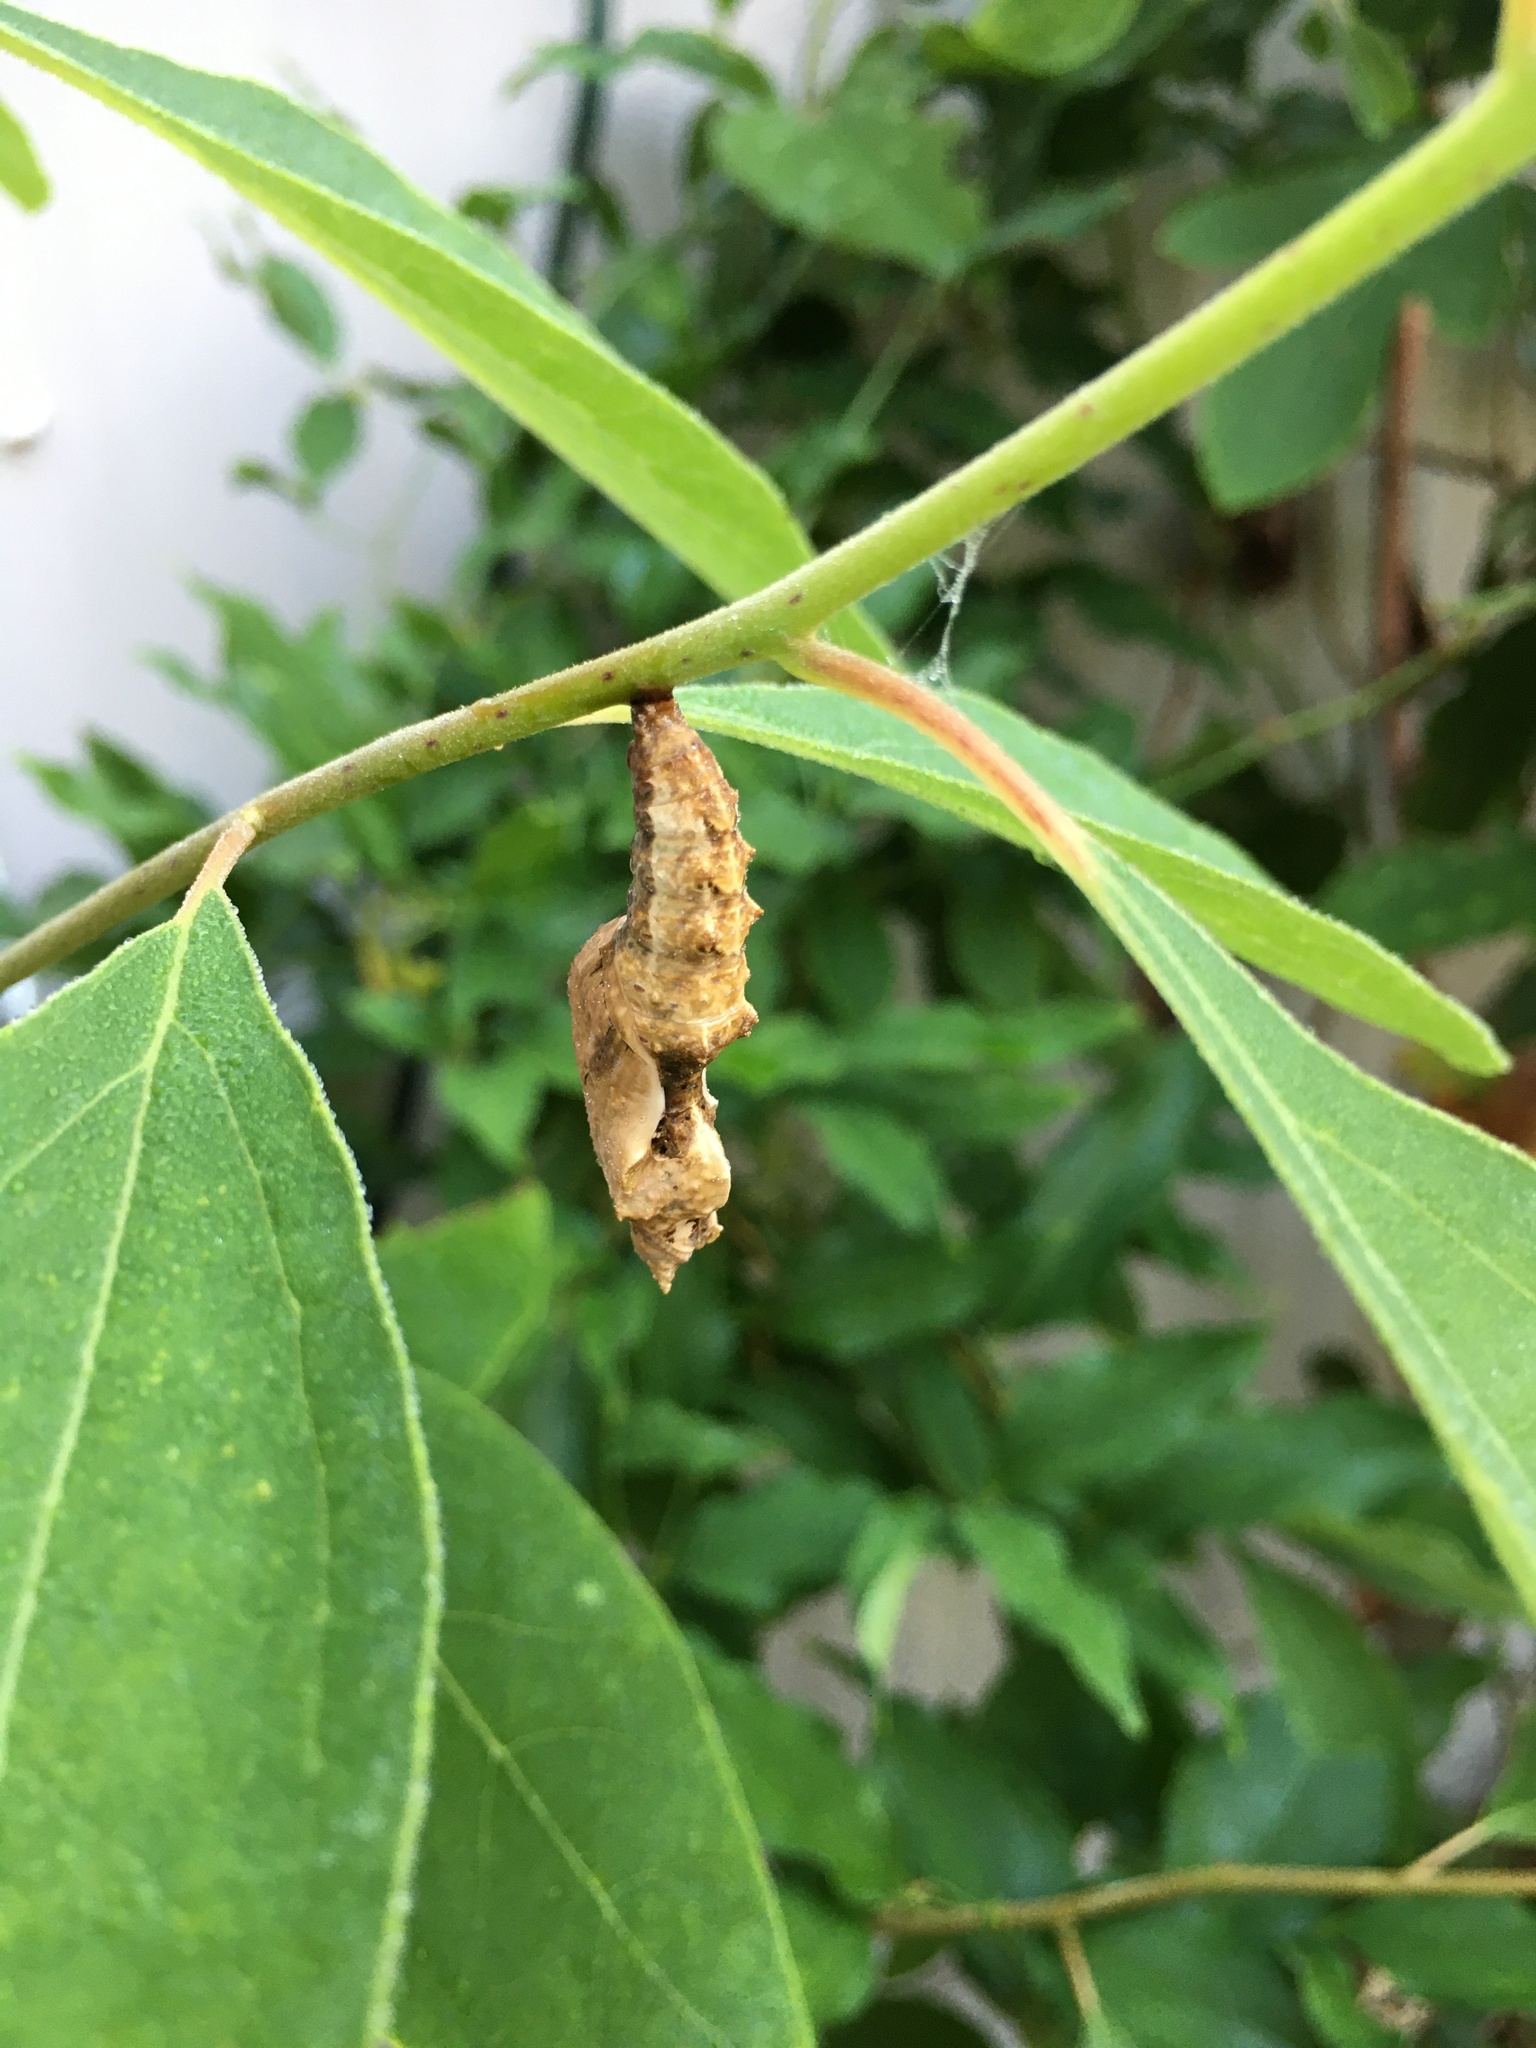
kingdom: Animalia
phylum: Arthropoda
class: Insecta
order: Lepidoptera
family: Nymphalidae
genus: Dione
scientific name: Dione vanillae
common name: Gulf fritillary
